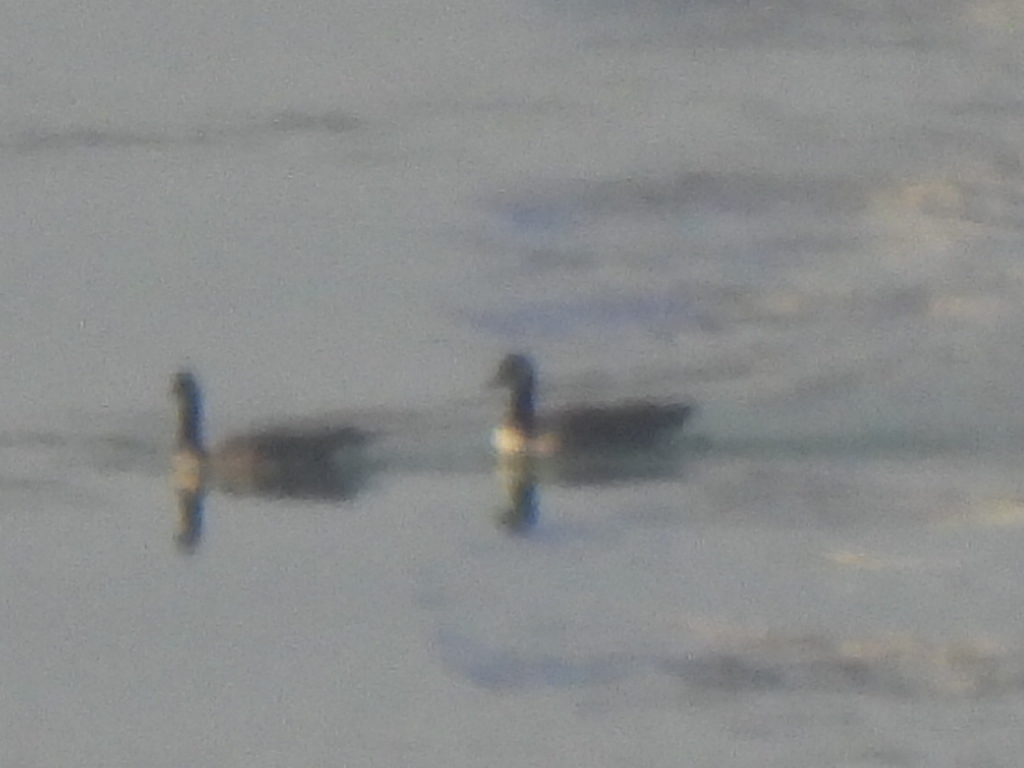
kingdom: Animalia
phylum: Chordata
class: Aves
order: Anseriformes
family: Anatidae
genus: Branta
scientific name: Branta canadensis
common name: Canada goose
